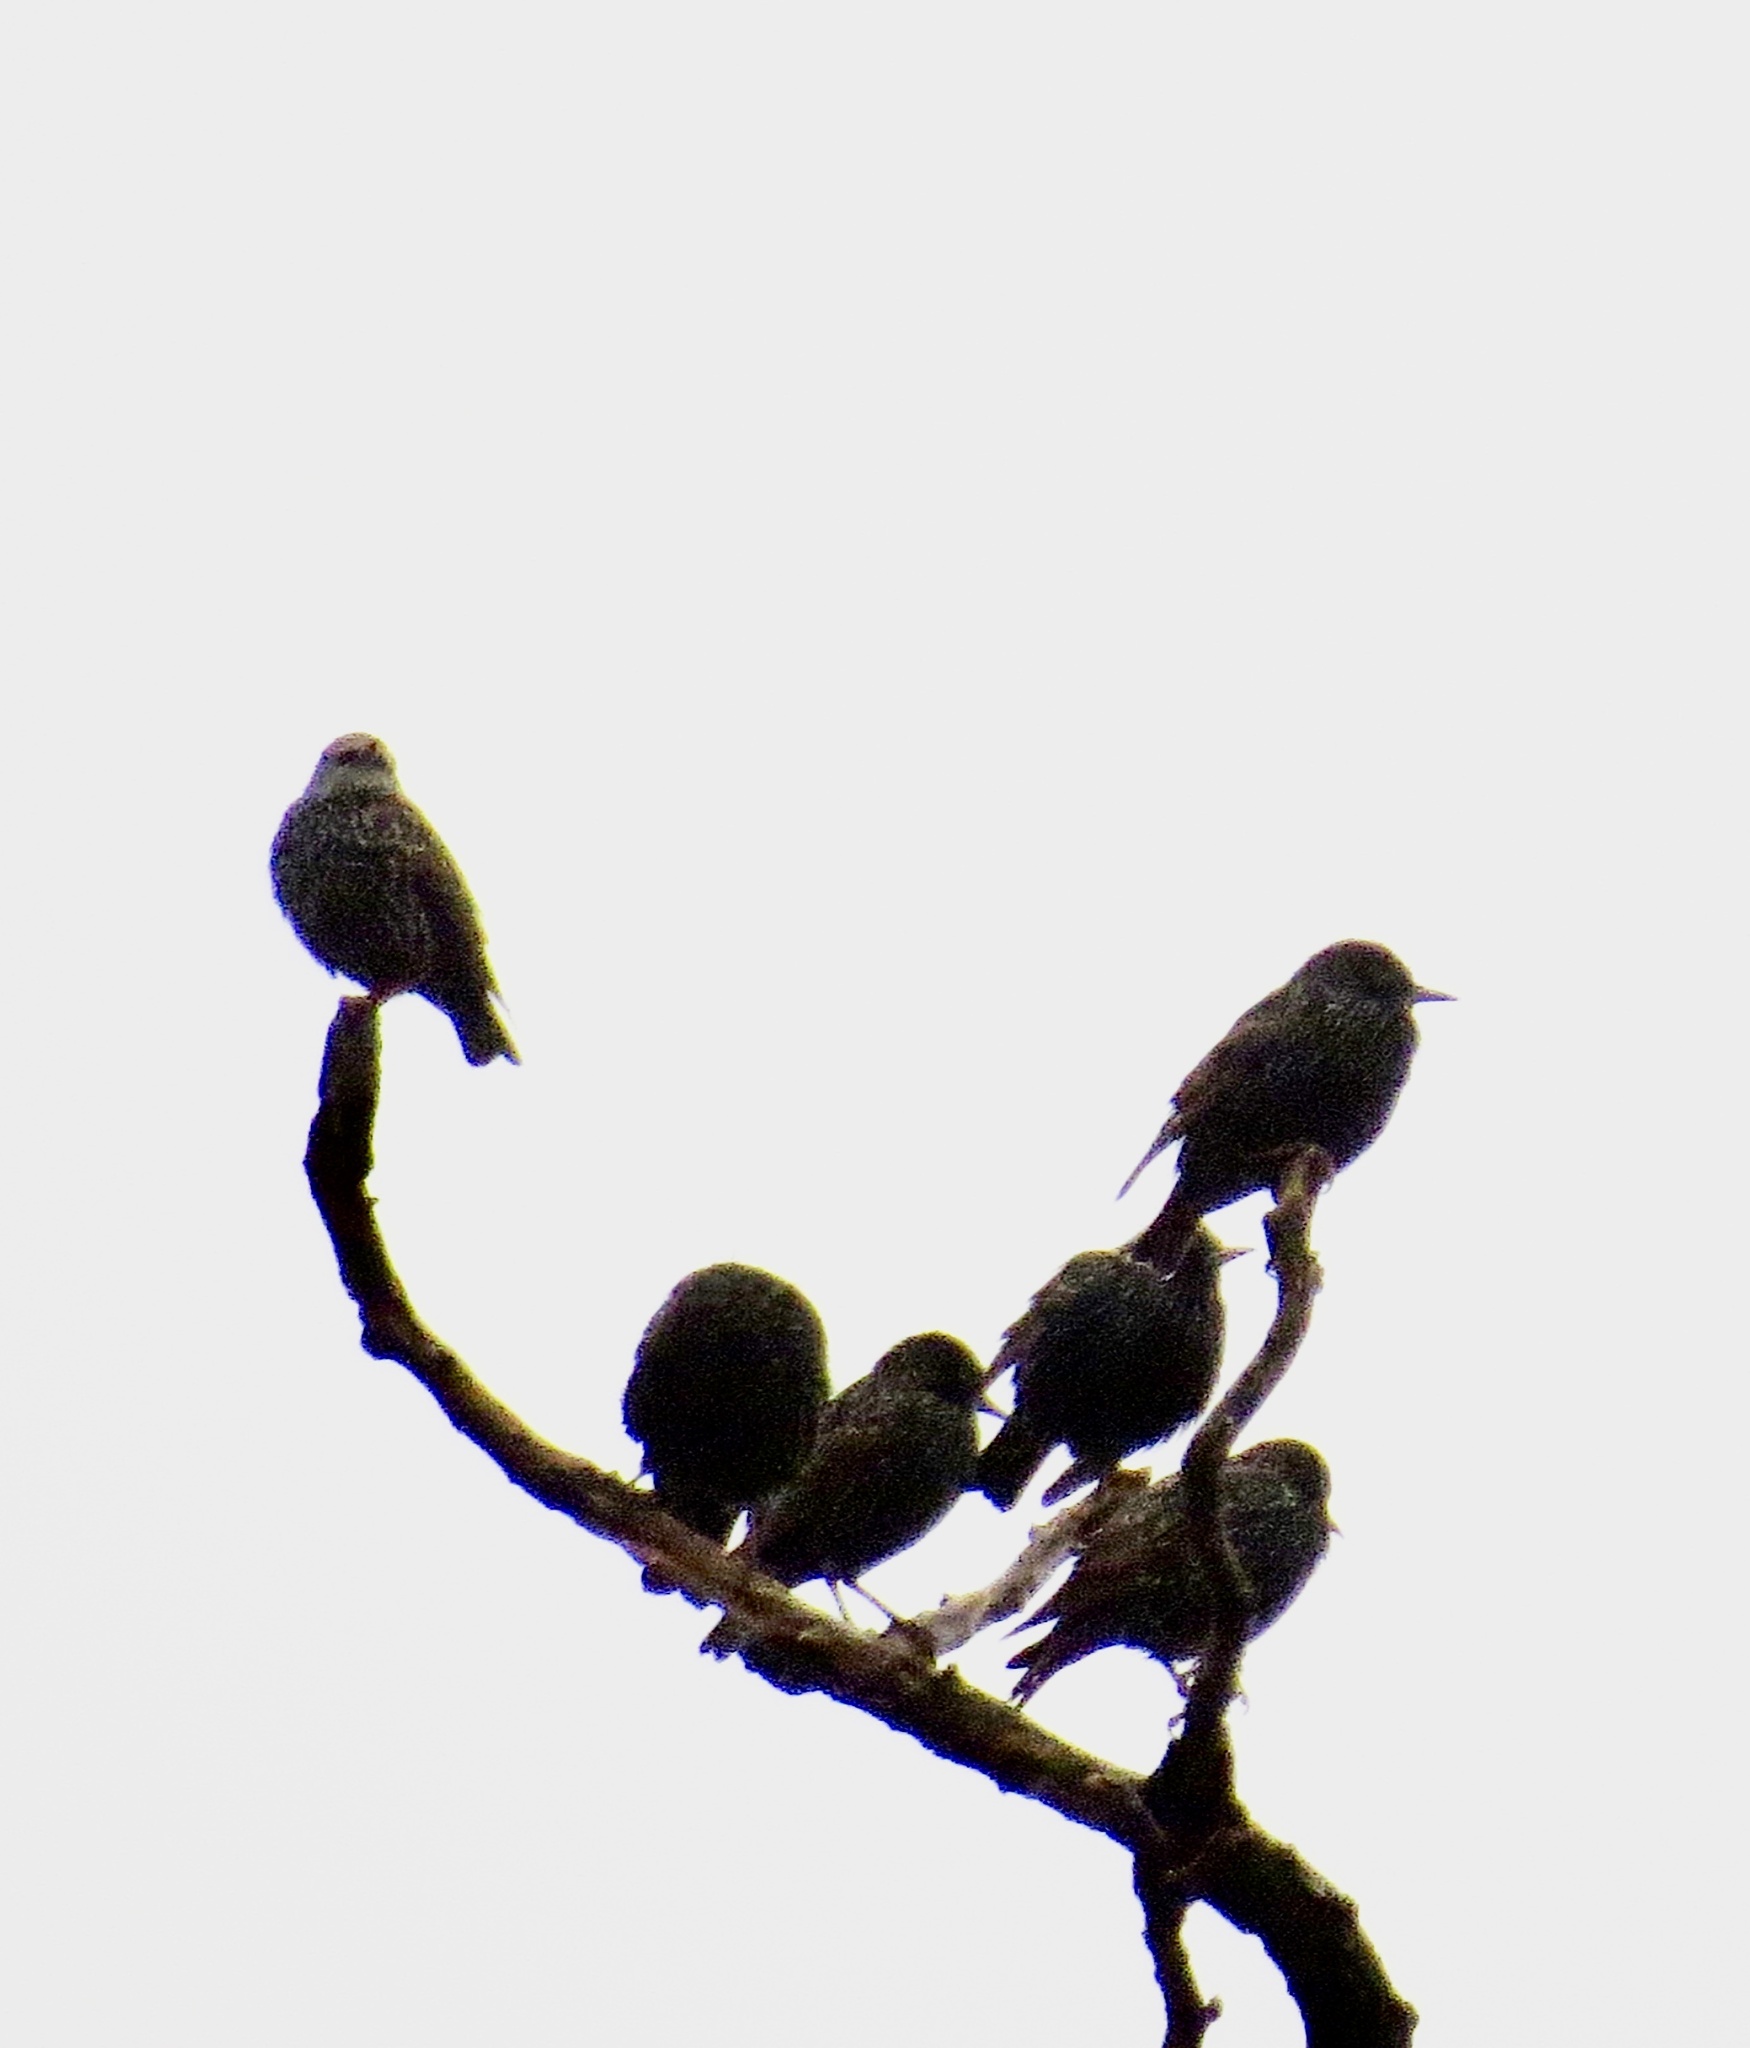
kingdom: Animalia
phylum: Chordata
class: Aves
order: Passeriformes
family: Sturnidae
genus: Sturnus
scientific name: Sturnus vulgaris
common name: Common starling
